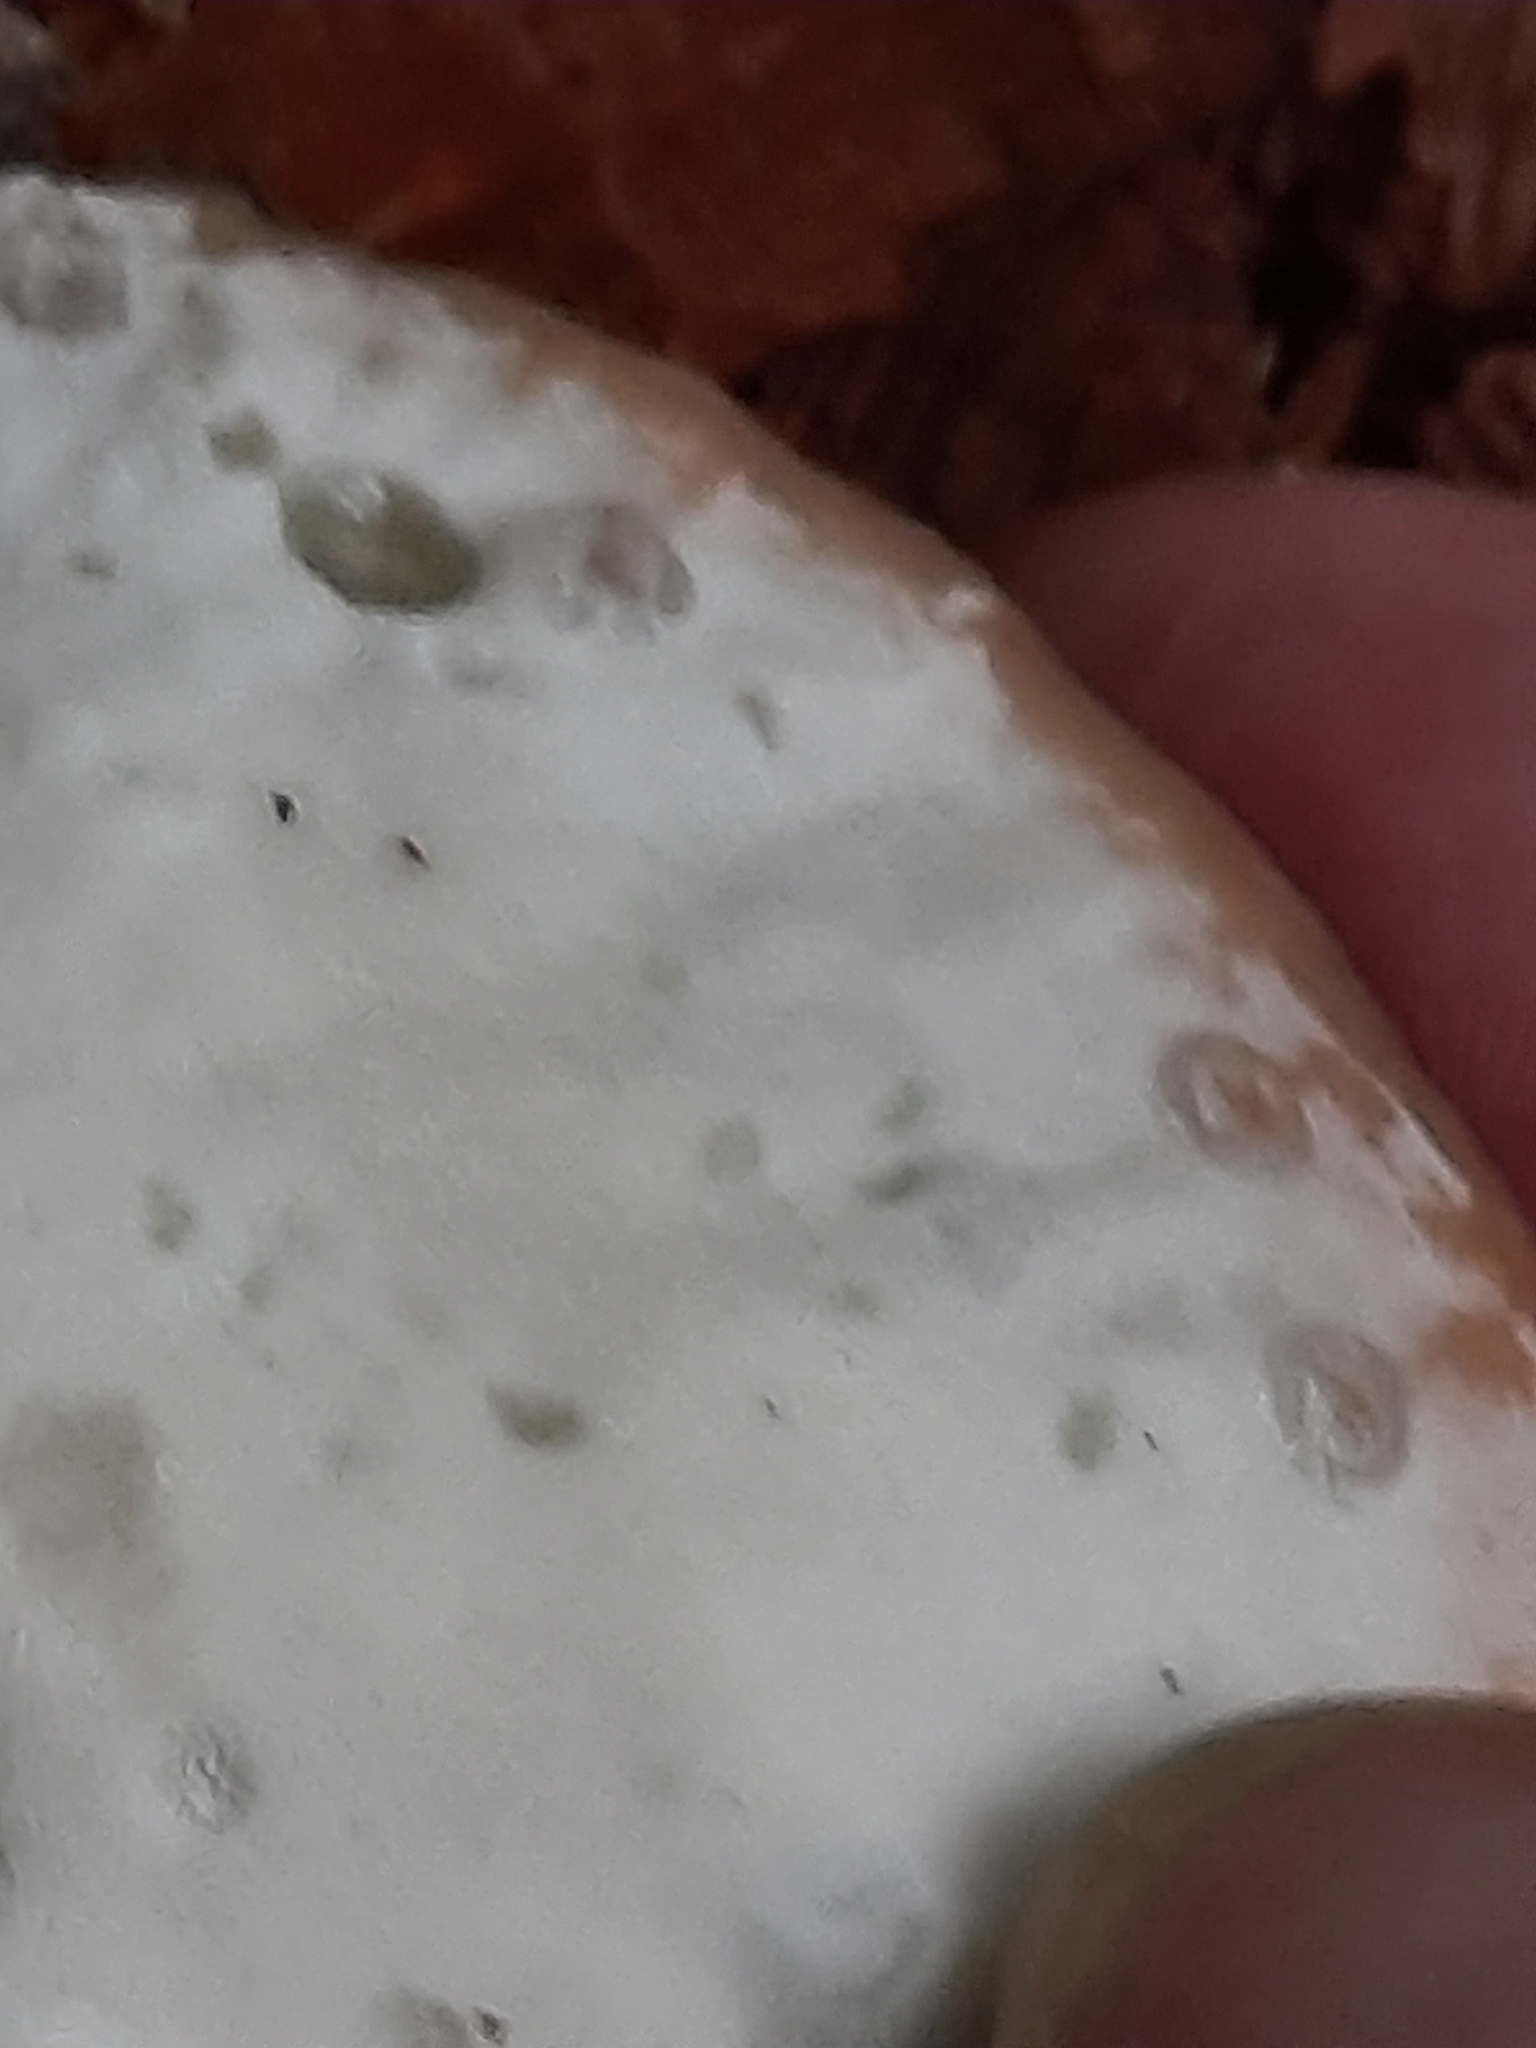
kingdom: Fungi
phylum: Basidiomycota
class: Agaricomycetes
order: Polyporales
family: Fomitopsidaceae
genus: Niveoporofomes
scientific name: Niveoporofomes spraguei
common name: Green cheese polypore
